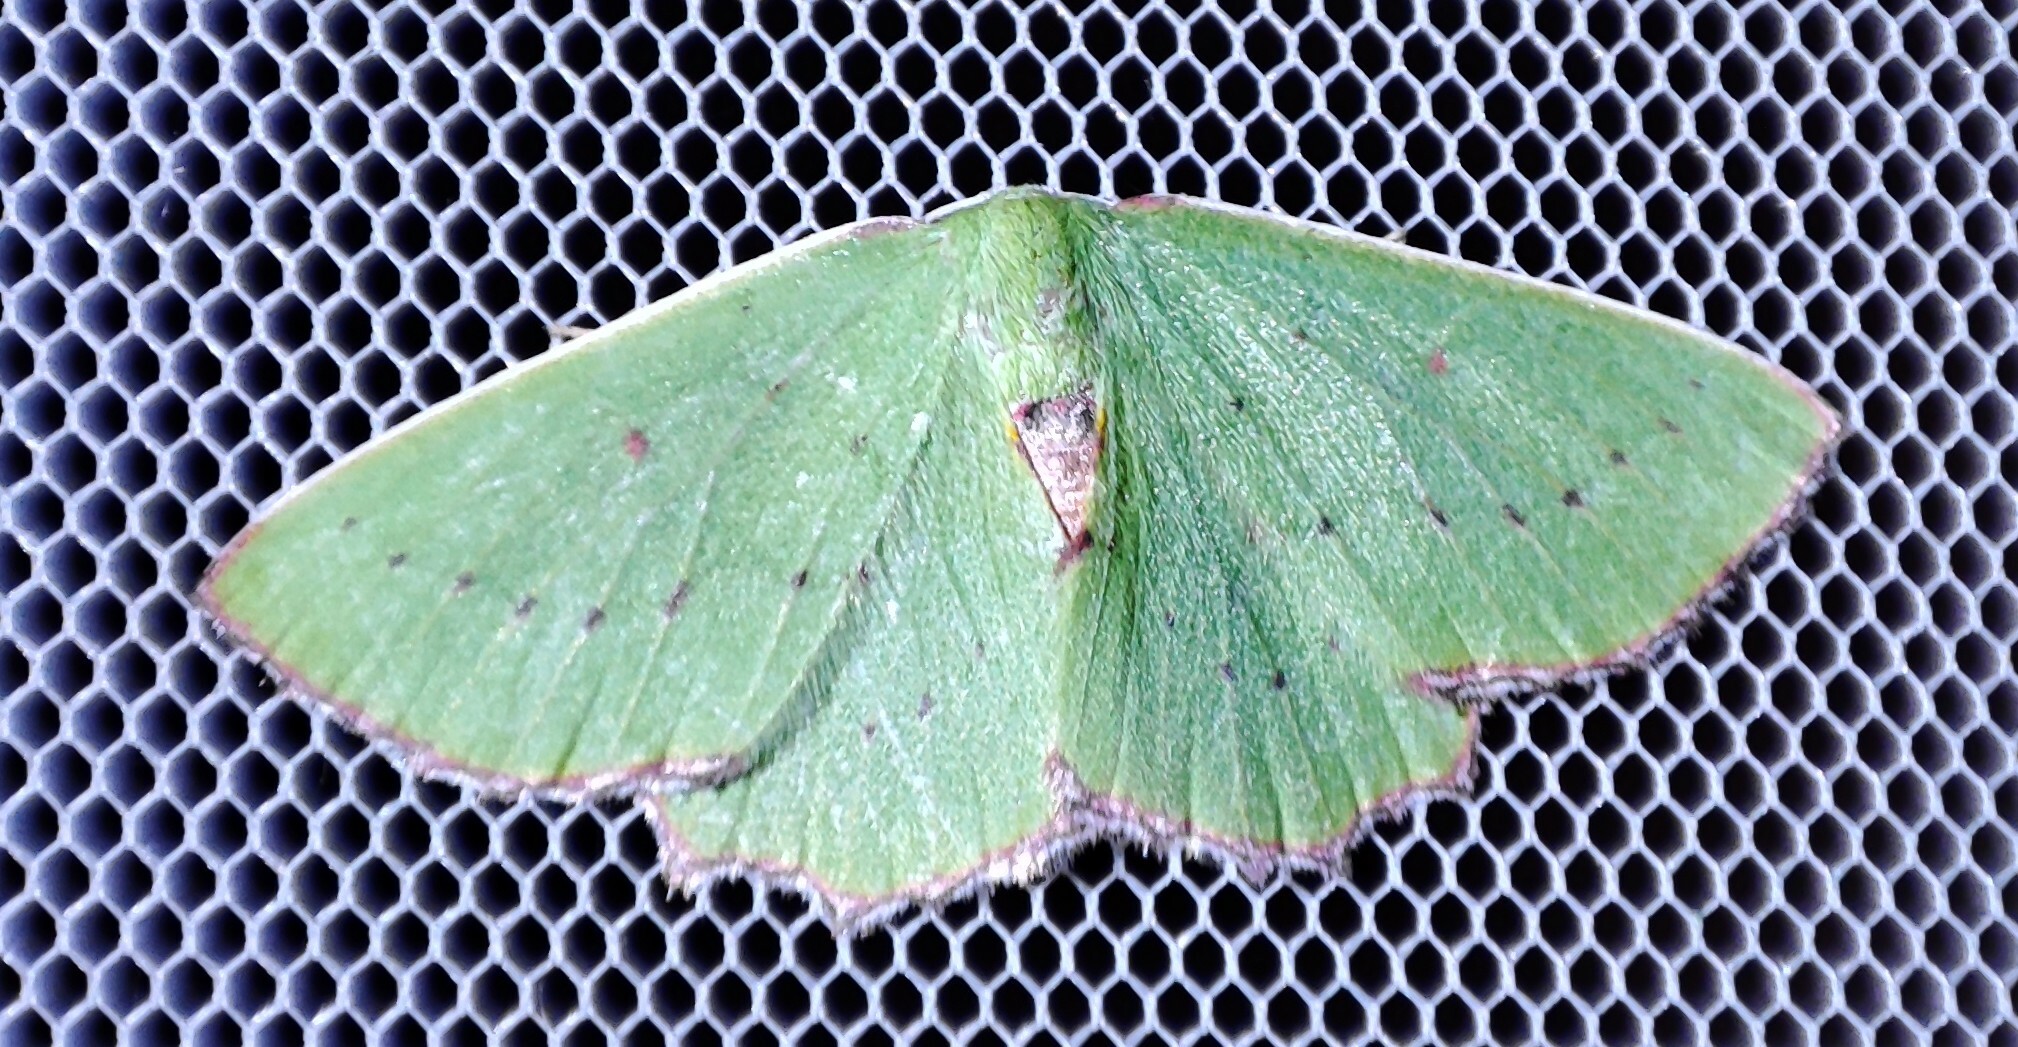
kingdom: Animalia
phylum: Arthropoda
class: Insecta
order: Lepidoptera
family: Geometridae
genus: Adicocrita
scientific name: Adicocrita koranata
